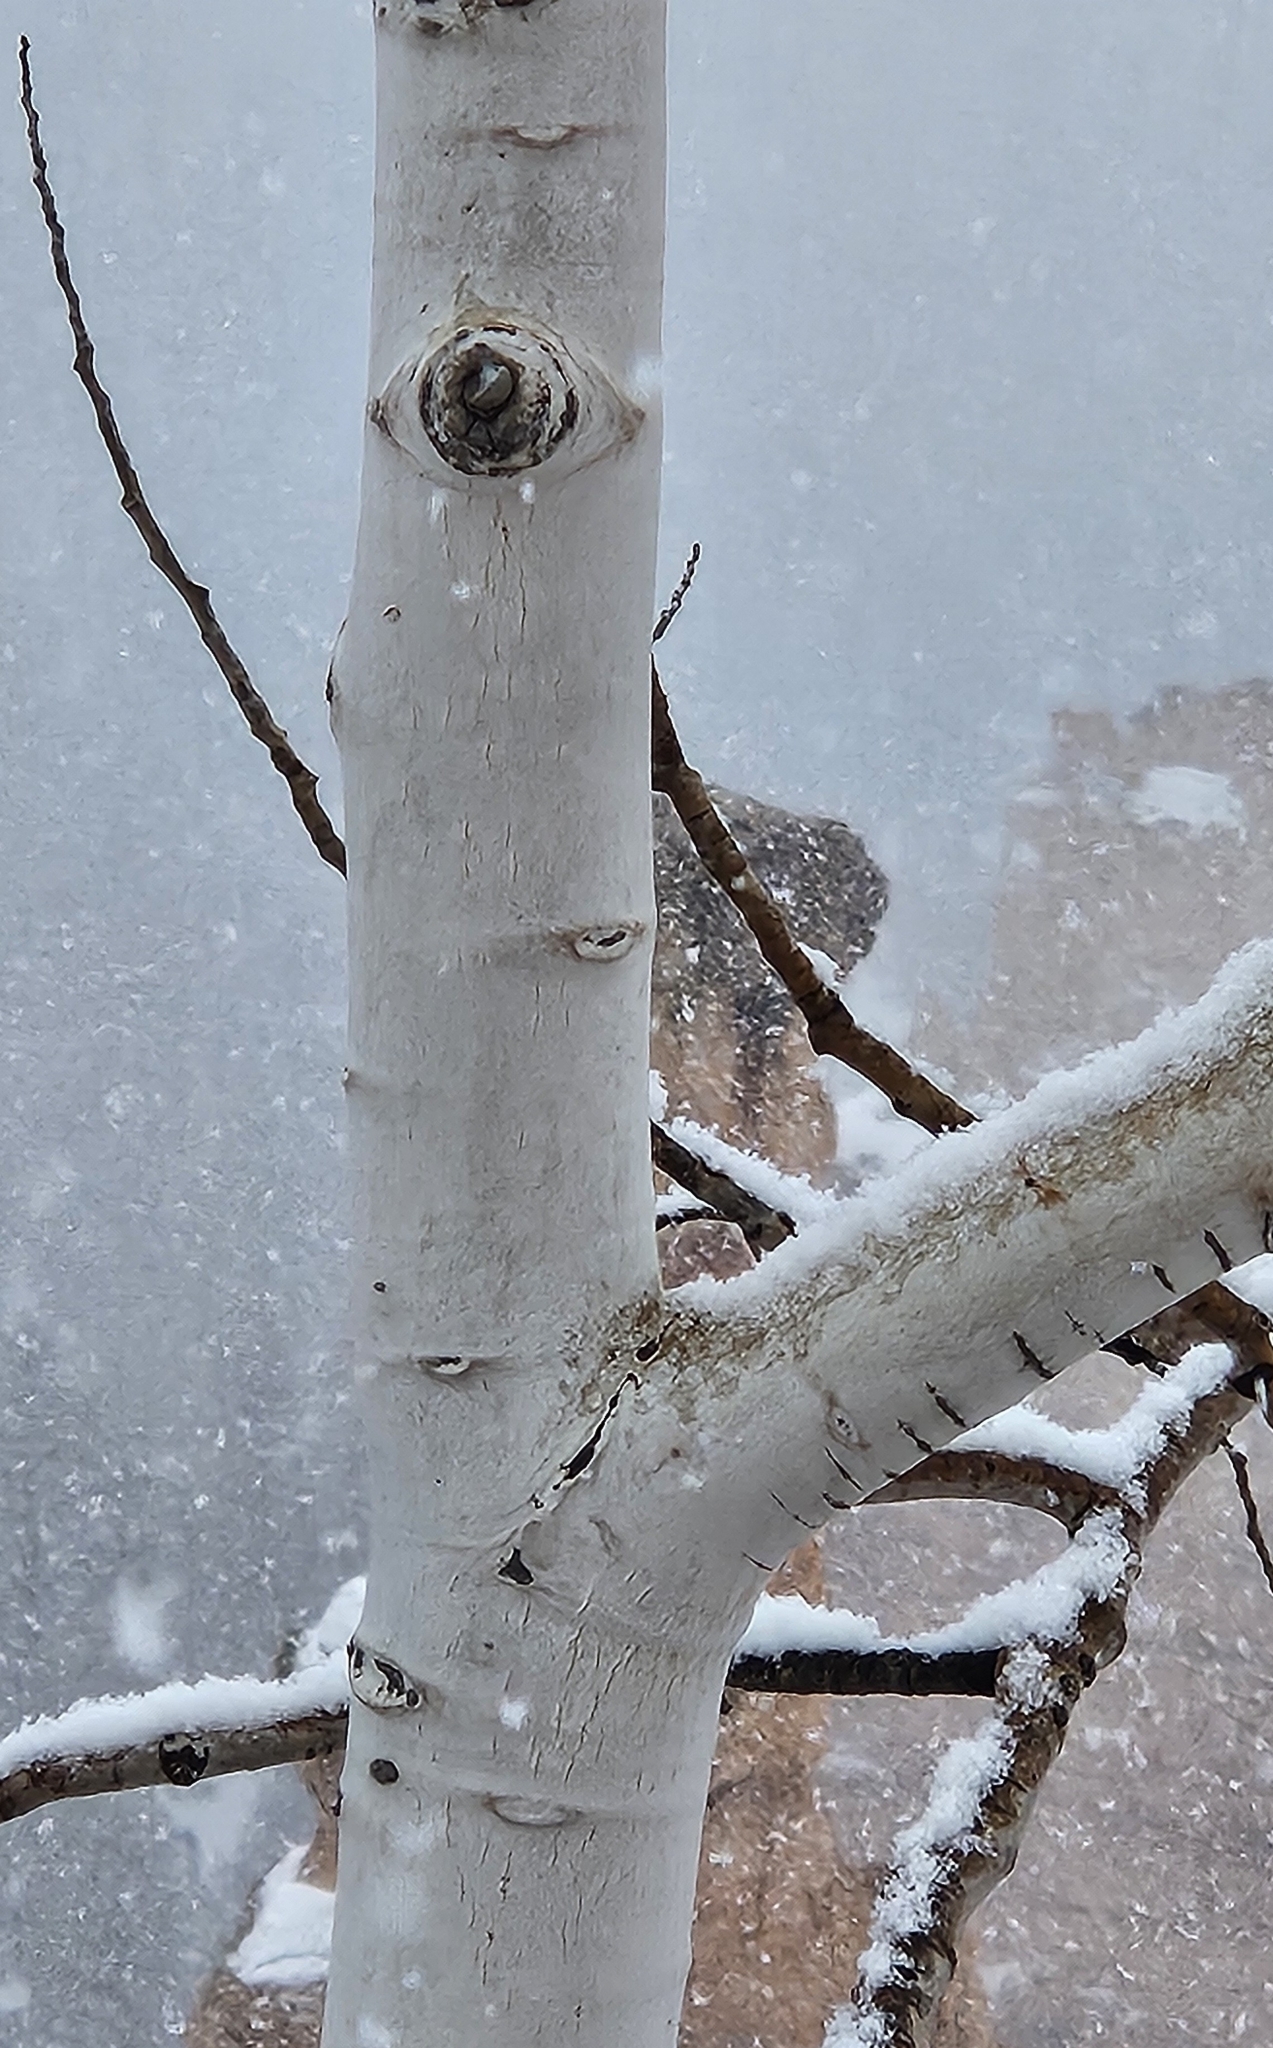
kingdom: Plantae
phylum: Tracheophyta
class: Magnoliopsida
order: Malpighiales
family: Salicaceae
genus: Populus
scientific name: Populus tremuloides
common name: Quaking aspen
